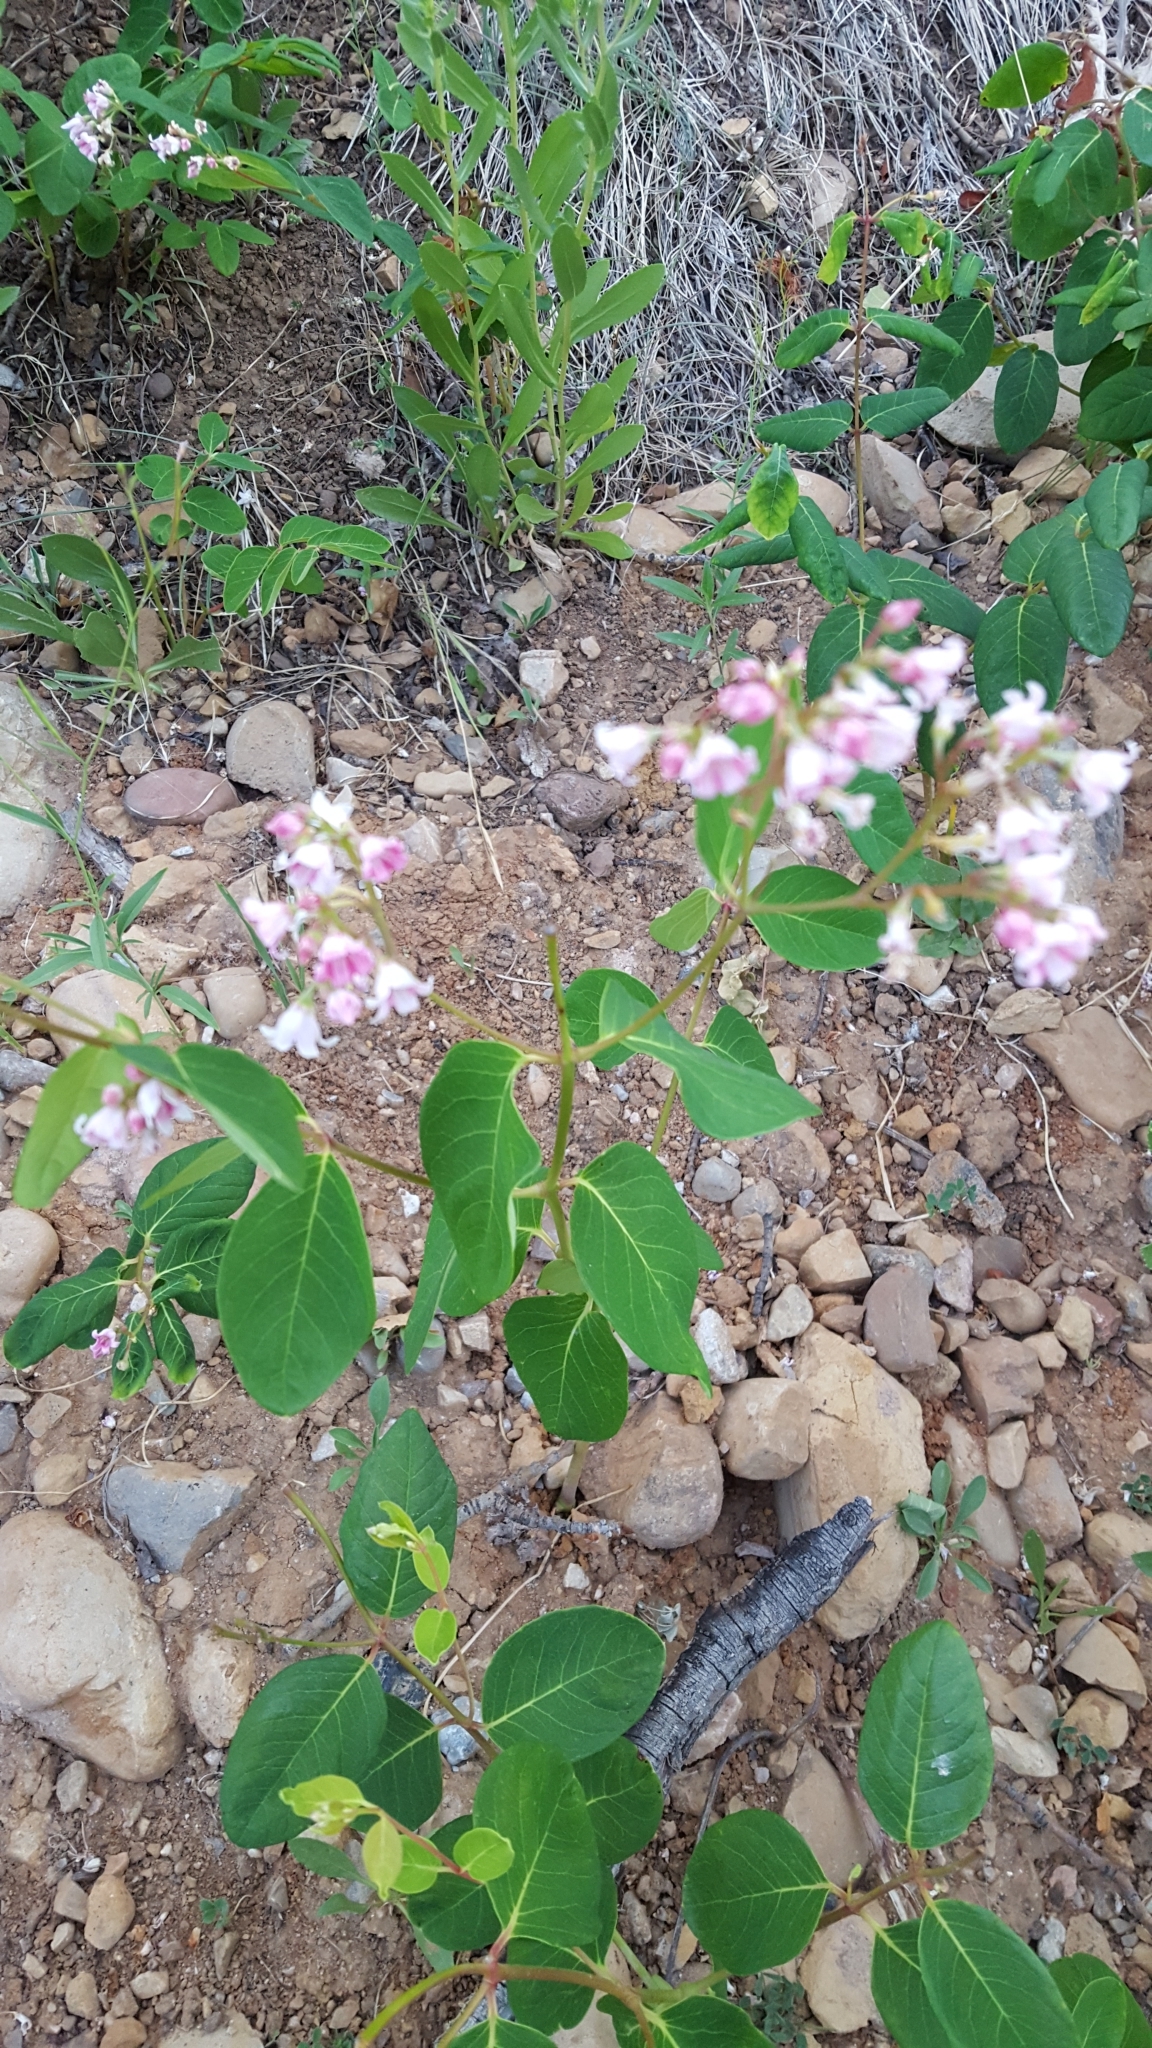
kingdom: Plantae
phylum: Tracheophyta
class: Magnoliopsida
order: Gentianales
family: Apocynaceae
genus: Apocynum
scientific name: Apocynum androsaemifolium
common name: Spreading dogbane
